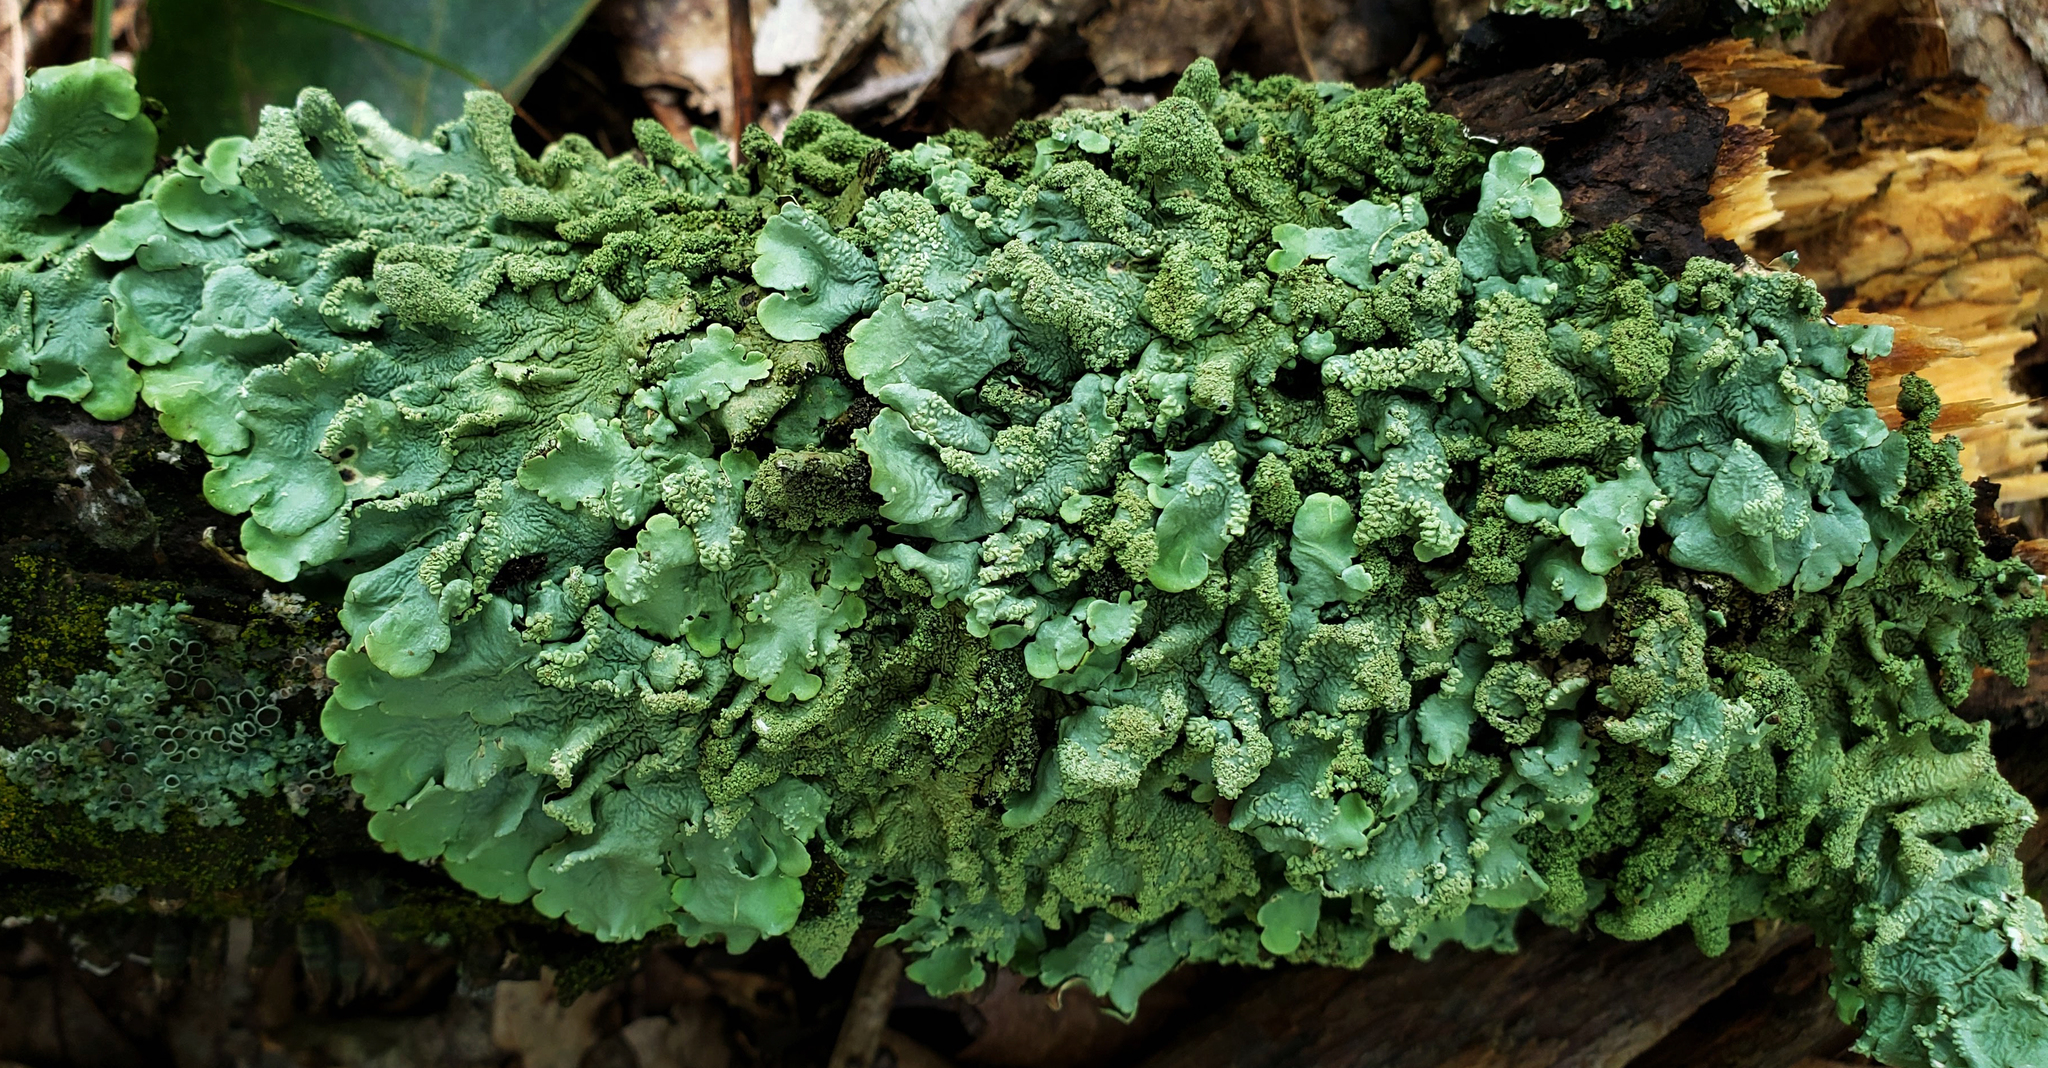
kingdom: Fungi
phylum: Ascomycota
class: Lecanoromycetes
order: Lecanorales
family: Parmeliaceae
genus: Flavoparmelia
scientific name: Flavoparmelia caperata
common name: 40-mile per hour lichen
